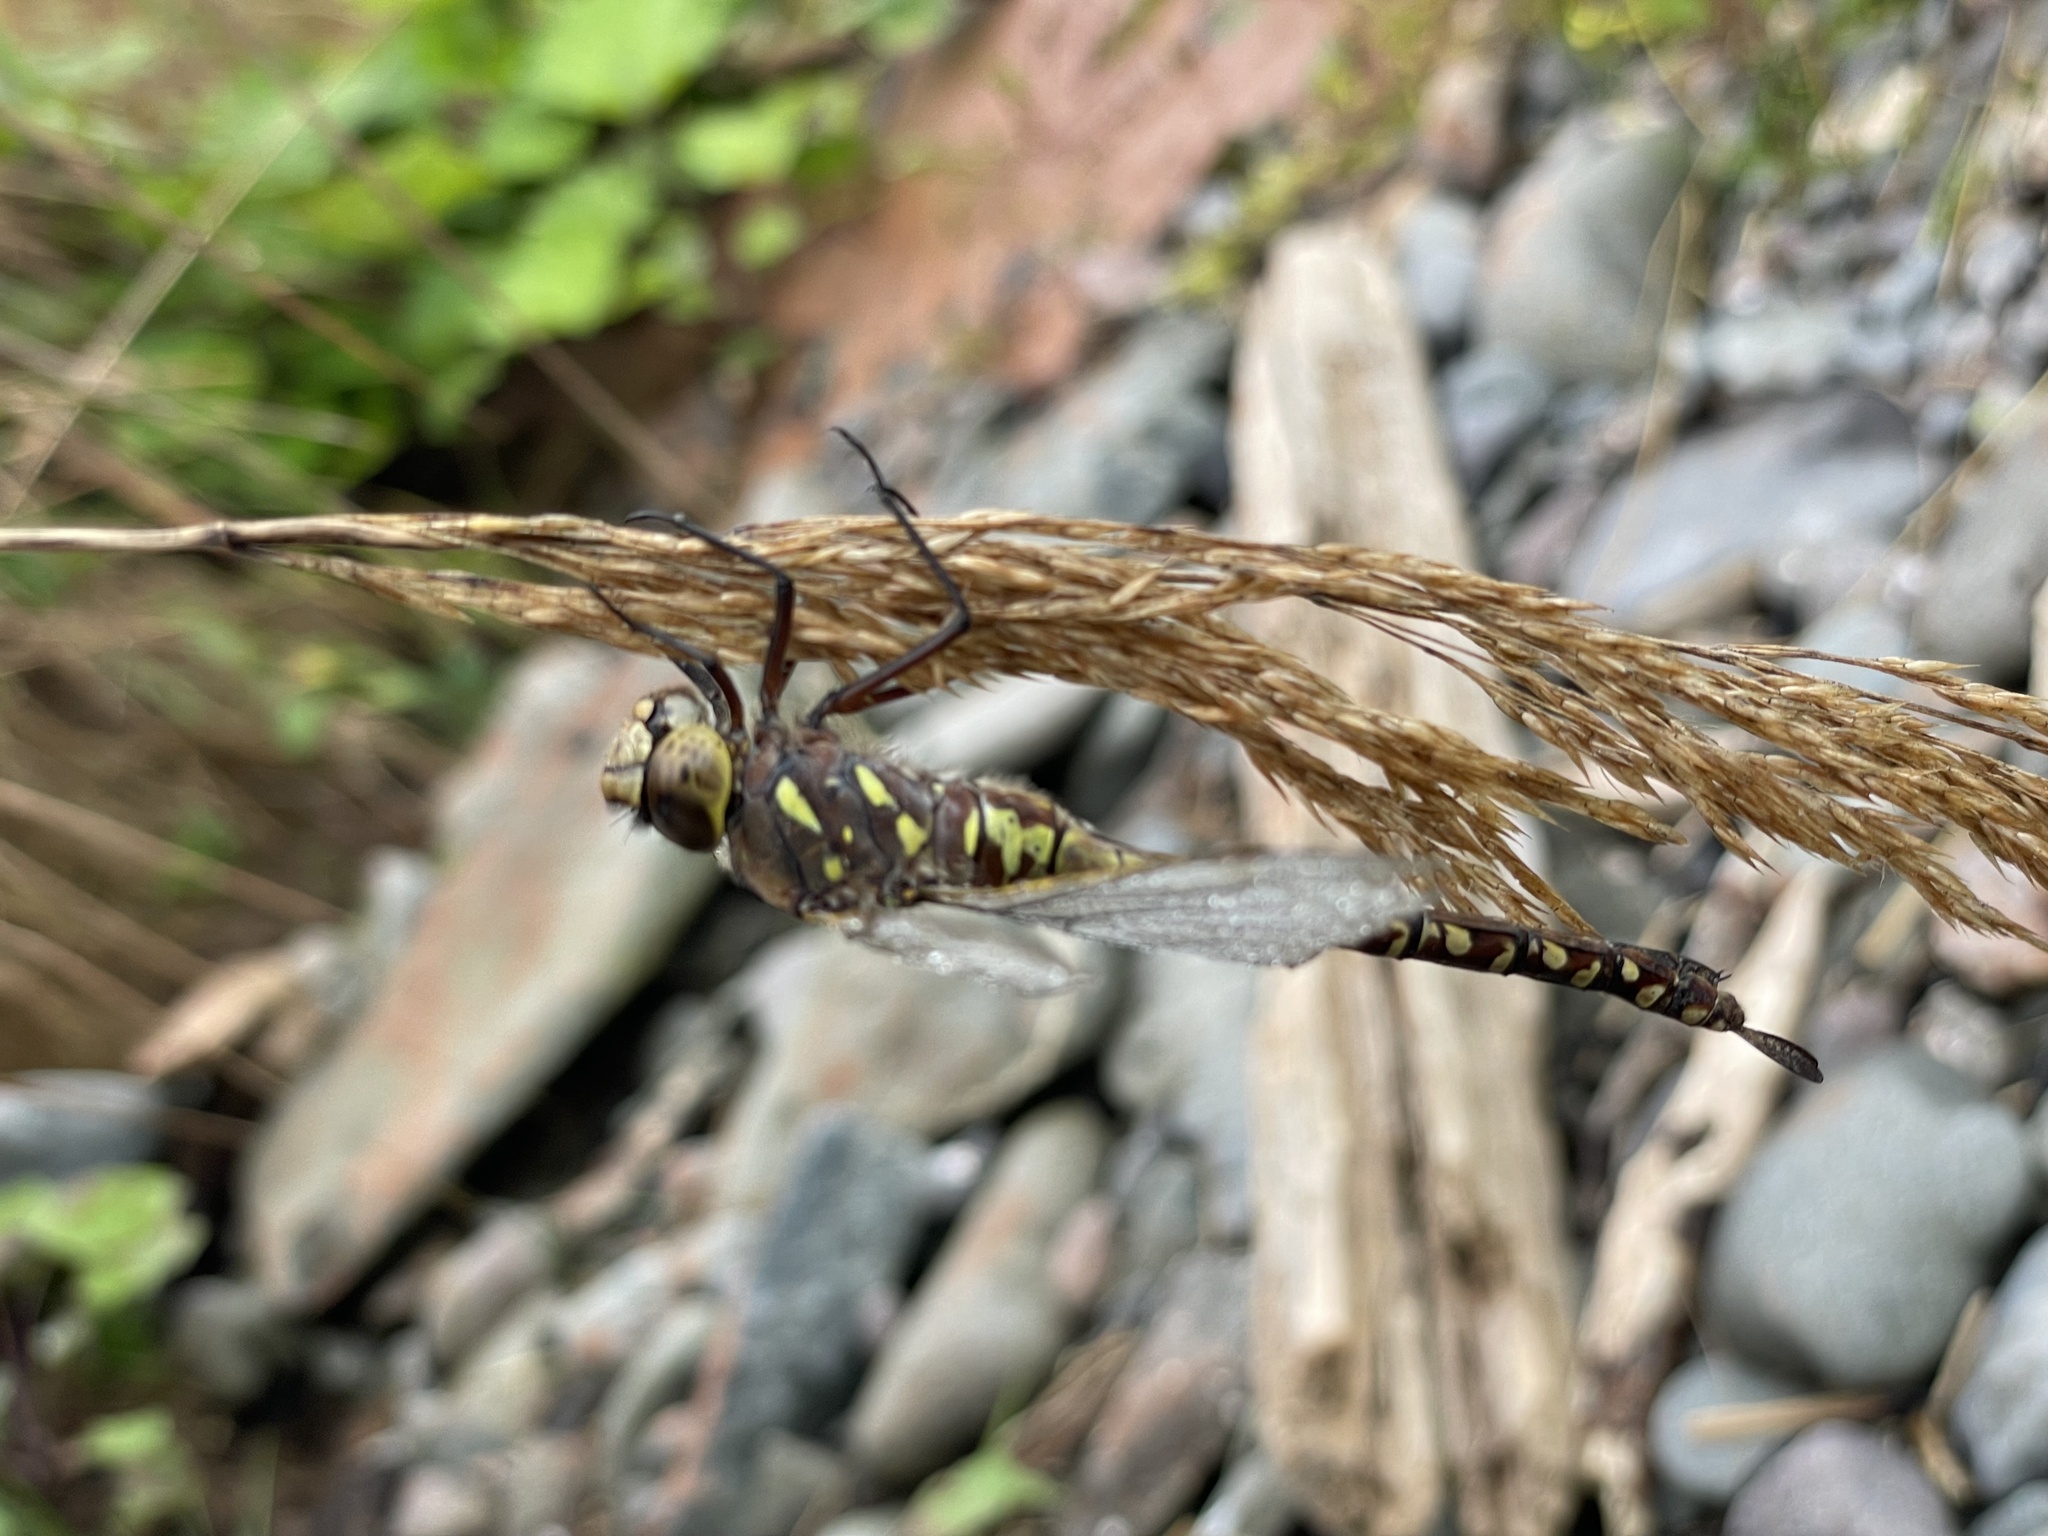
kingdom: Animalia
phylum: Arthropoda
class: Insecta
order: Odonata
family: Aeshnidae
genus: Aeshna
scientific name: Aeshna interrupta
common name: Variable darner
